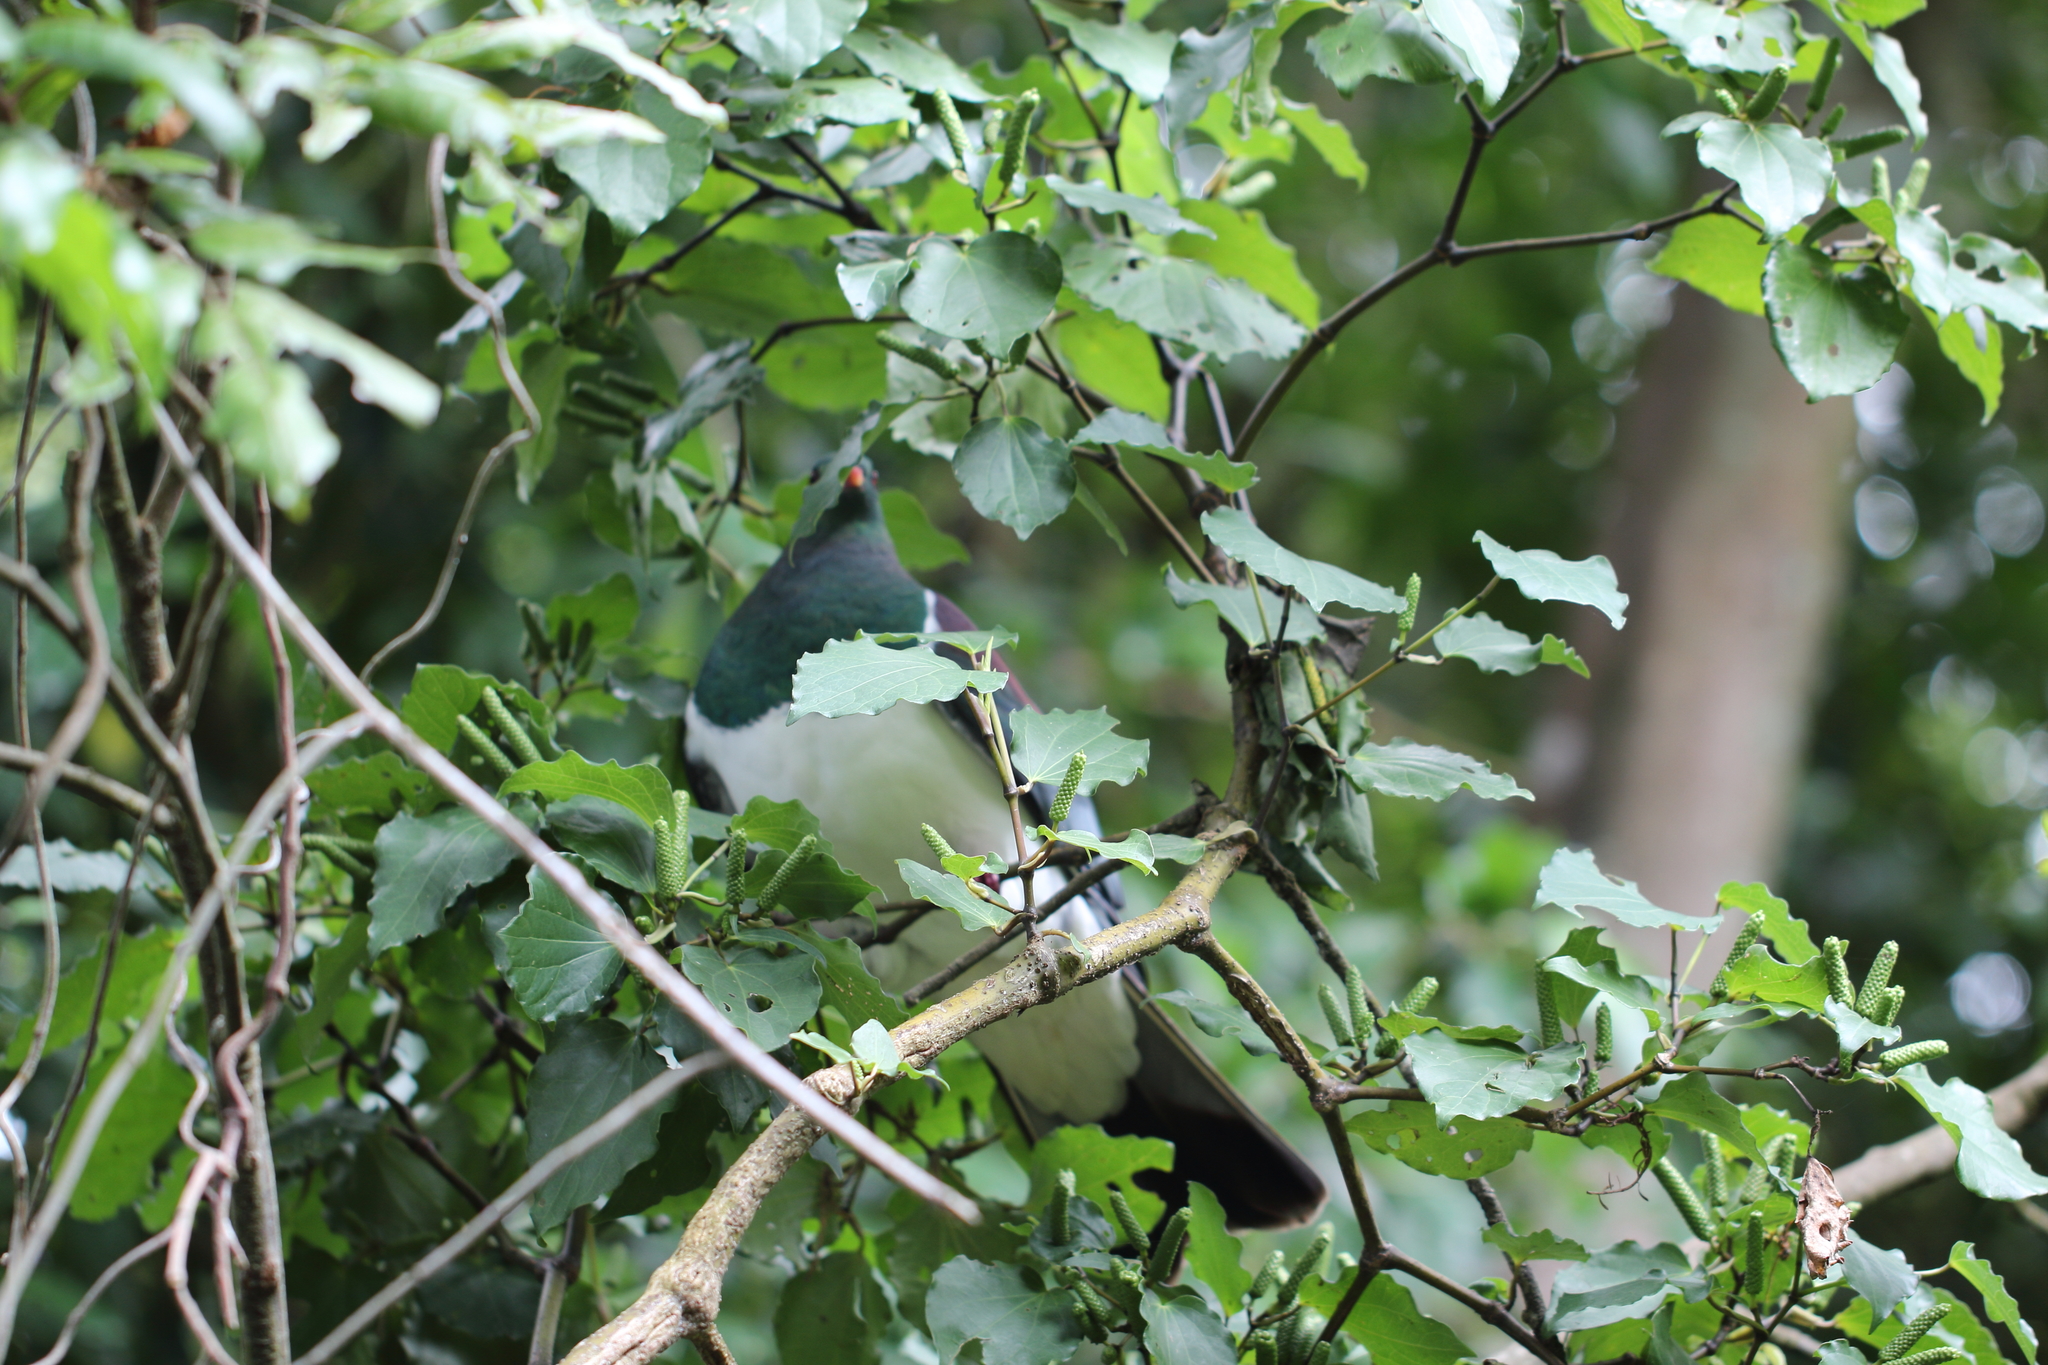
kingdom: Animalia
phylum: Chordata
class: Aves
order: Columbiformes
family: Columbidae
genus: Hemiphaga
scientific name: Hemiphaga novaeseelandiae
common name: New zealand pigeon
